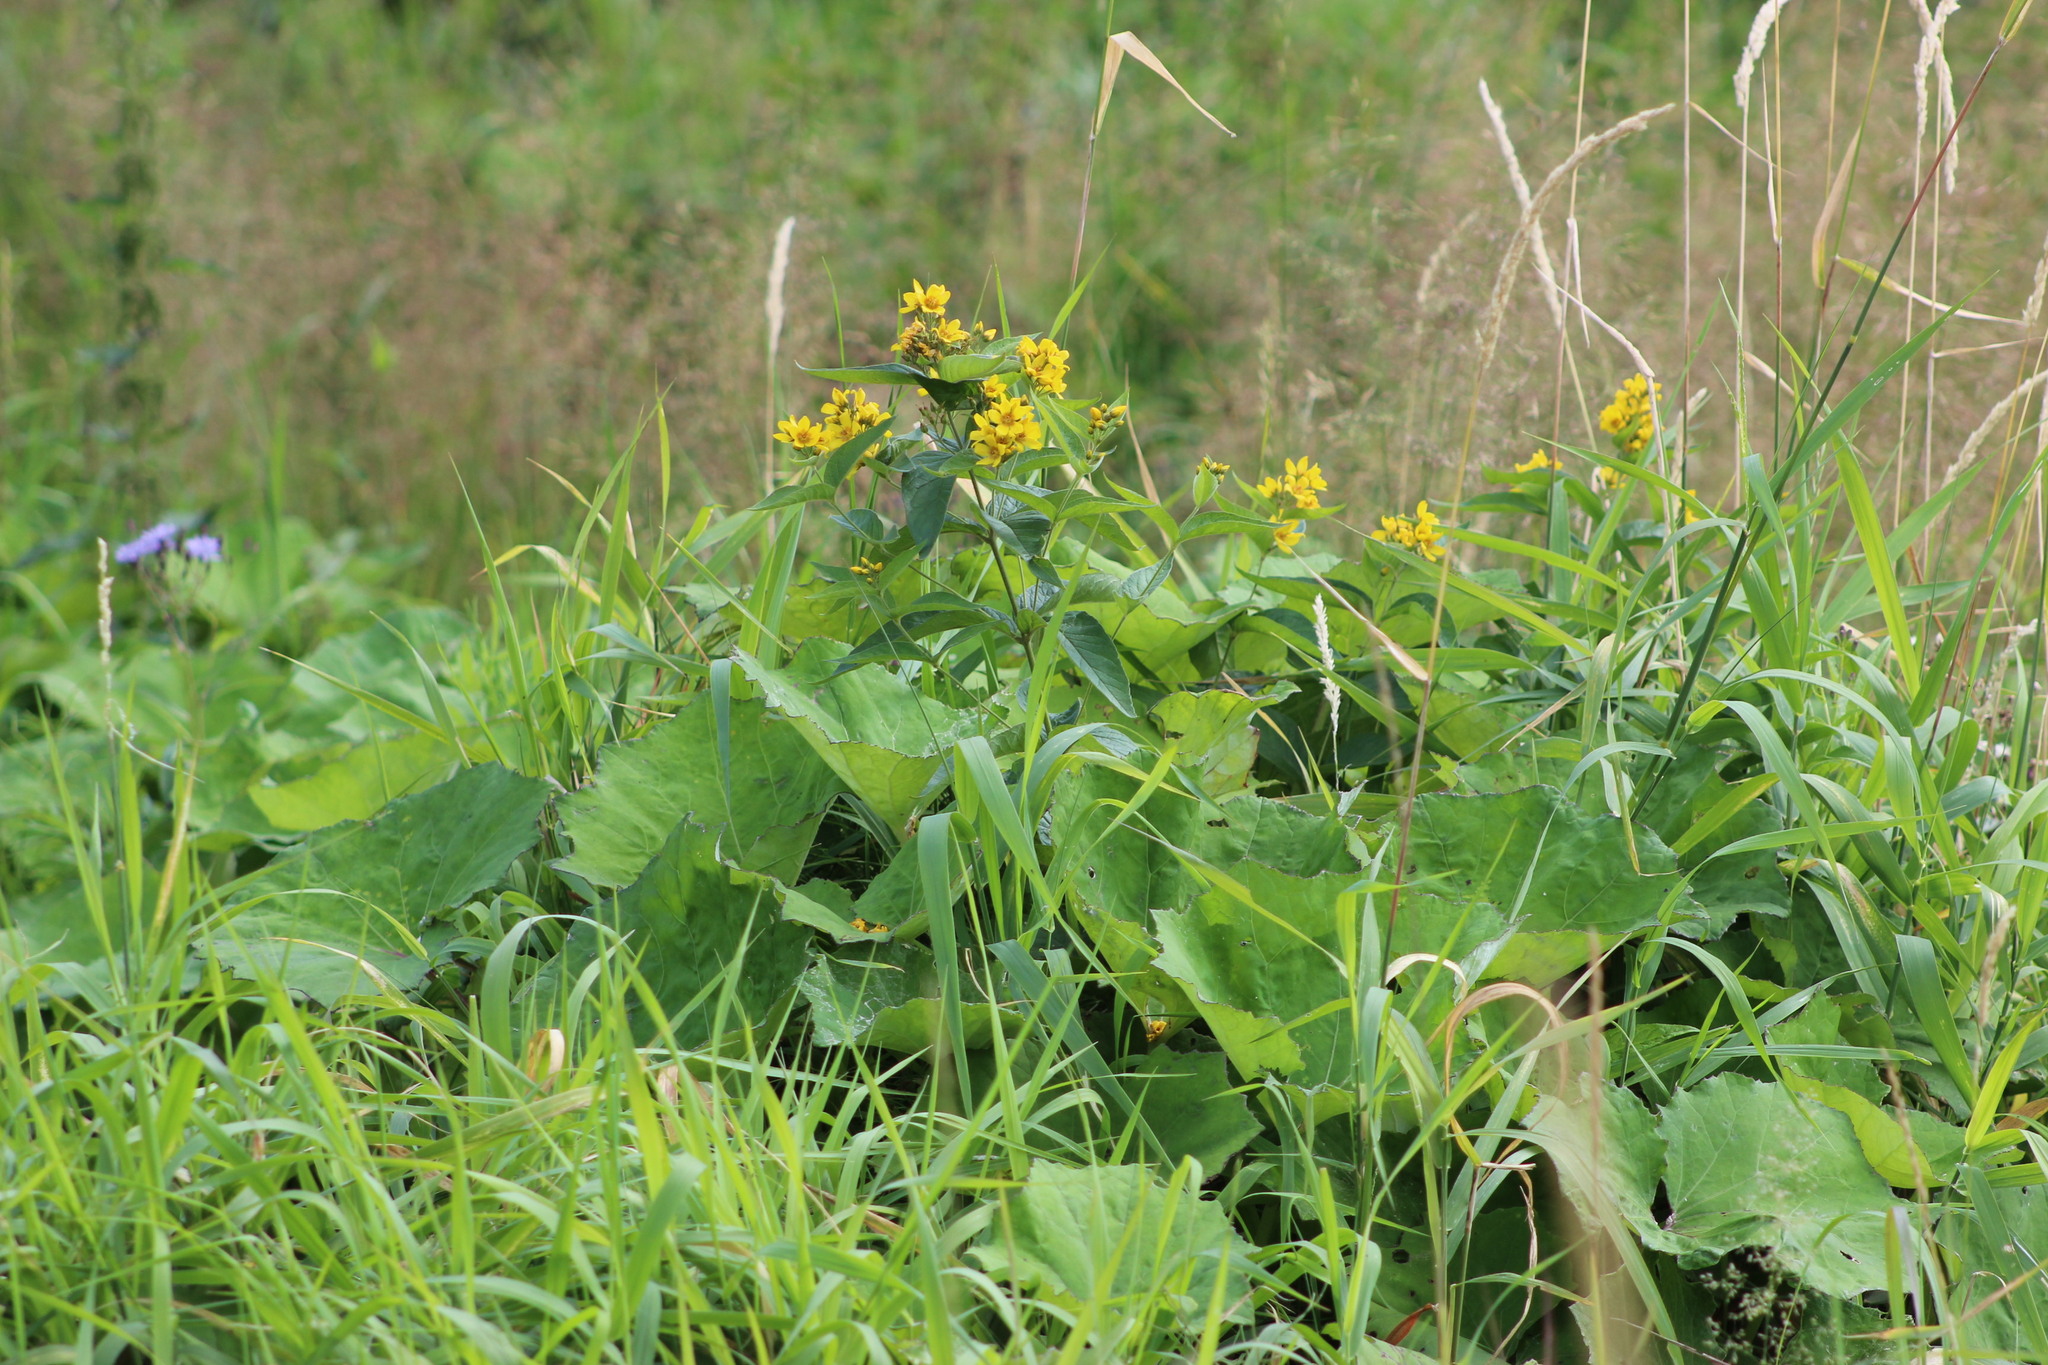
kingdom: Plantae
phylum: Tracheophyta
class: Magnoliopsida
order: Ericales
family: Primulaceae
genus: Lysimachia
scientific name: Lysimachia vulgaris
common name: Yellow loosestrife
